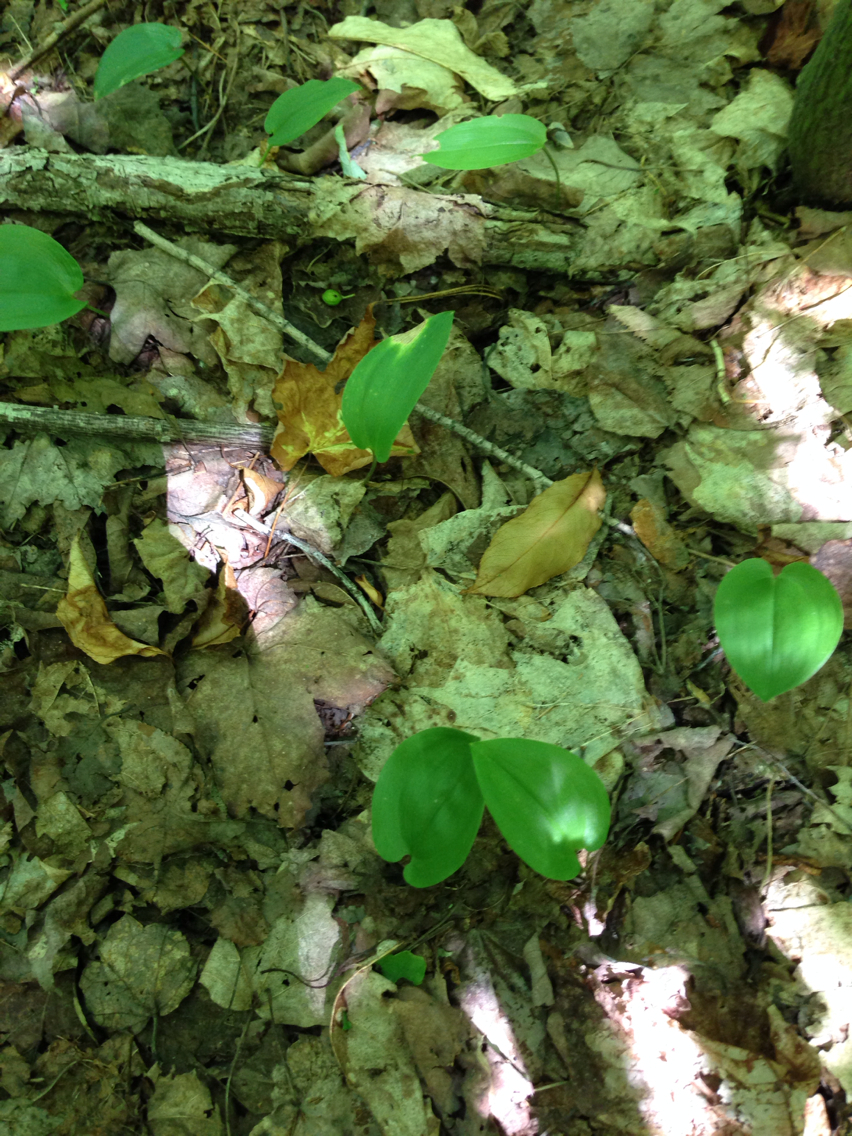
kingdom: Plantae
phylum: Tracheophyta
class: Liliopsida
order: Asparagales
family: Asparagaceae
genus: Maianthemum
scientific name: Maianthemum canadense
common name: False lily-of-the-valley
